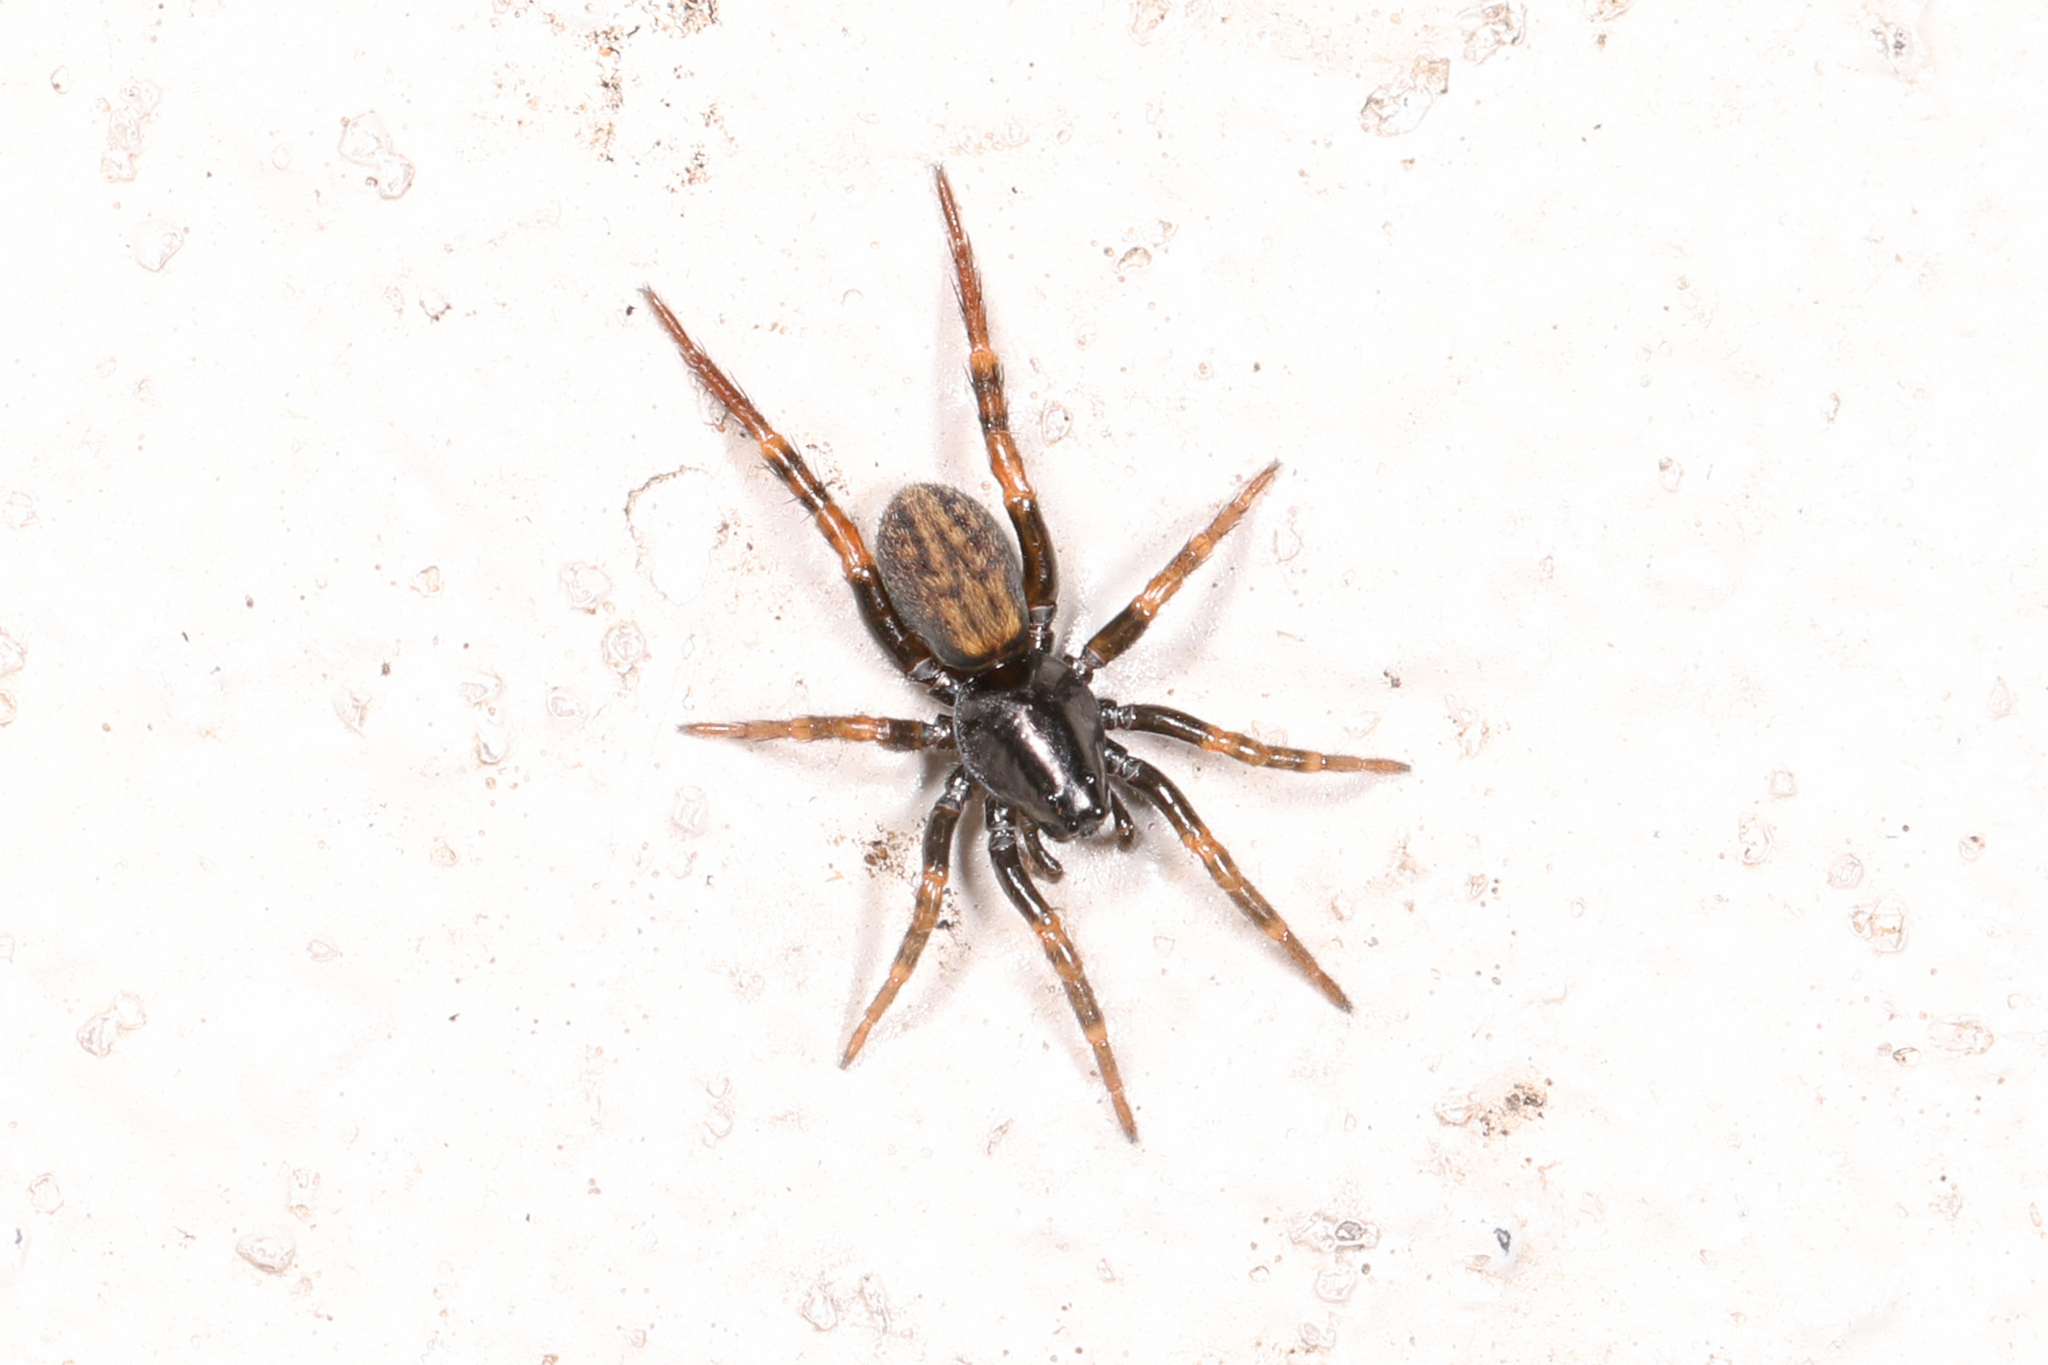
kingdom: Animalia
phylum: Arthropoda
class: Arachnida
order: Araneae
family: Lycosidae
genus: Allocosa
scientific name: Allocosa funerea
